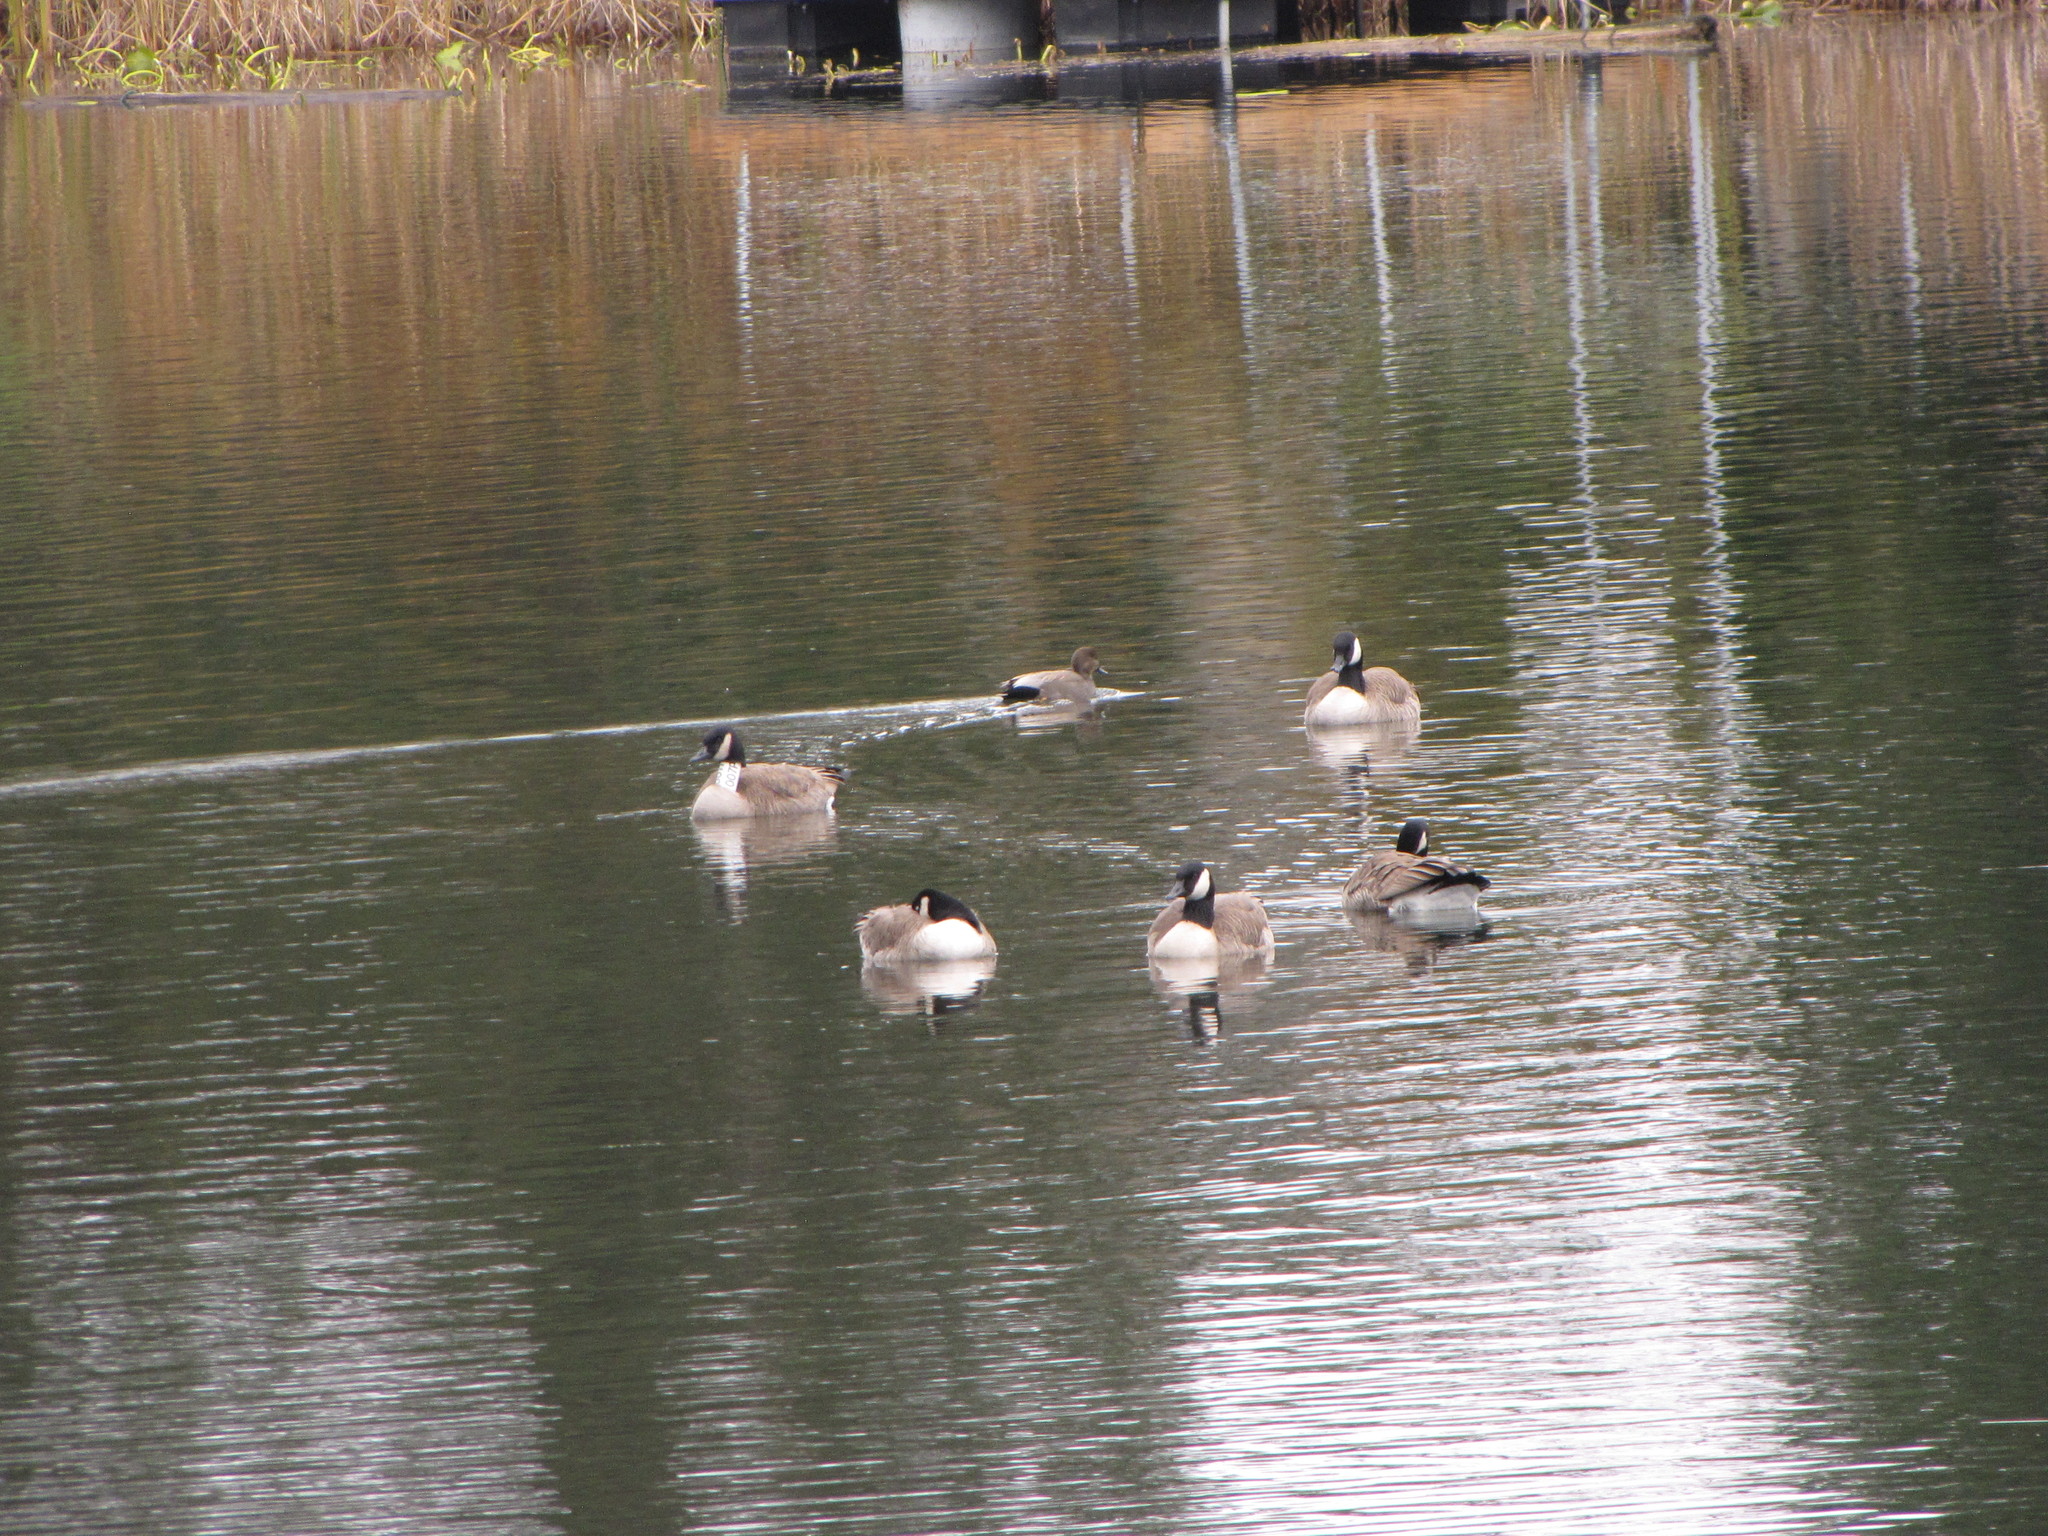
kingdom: Animalia
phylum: Chordata
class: Aves
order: Anseriformes
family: Anatidae
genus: Mareca
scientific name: Mareca strepera
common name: Gadwall
